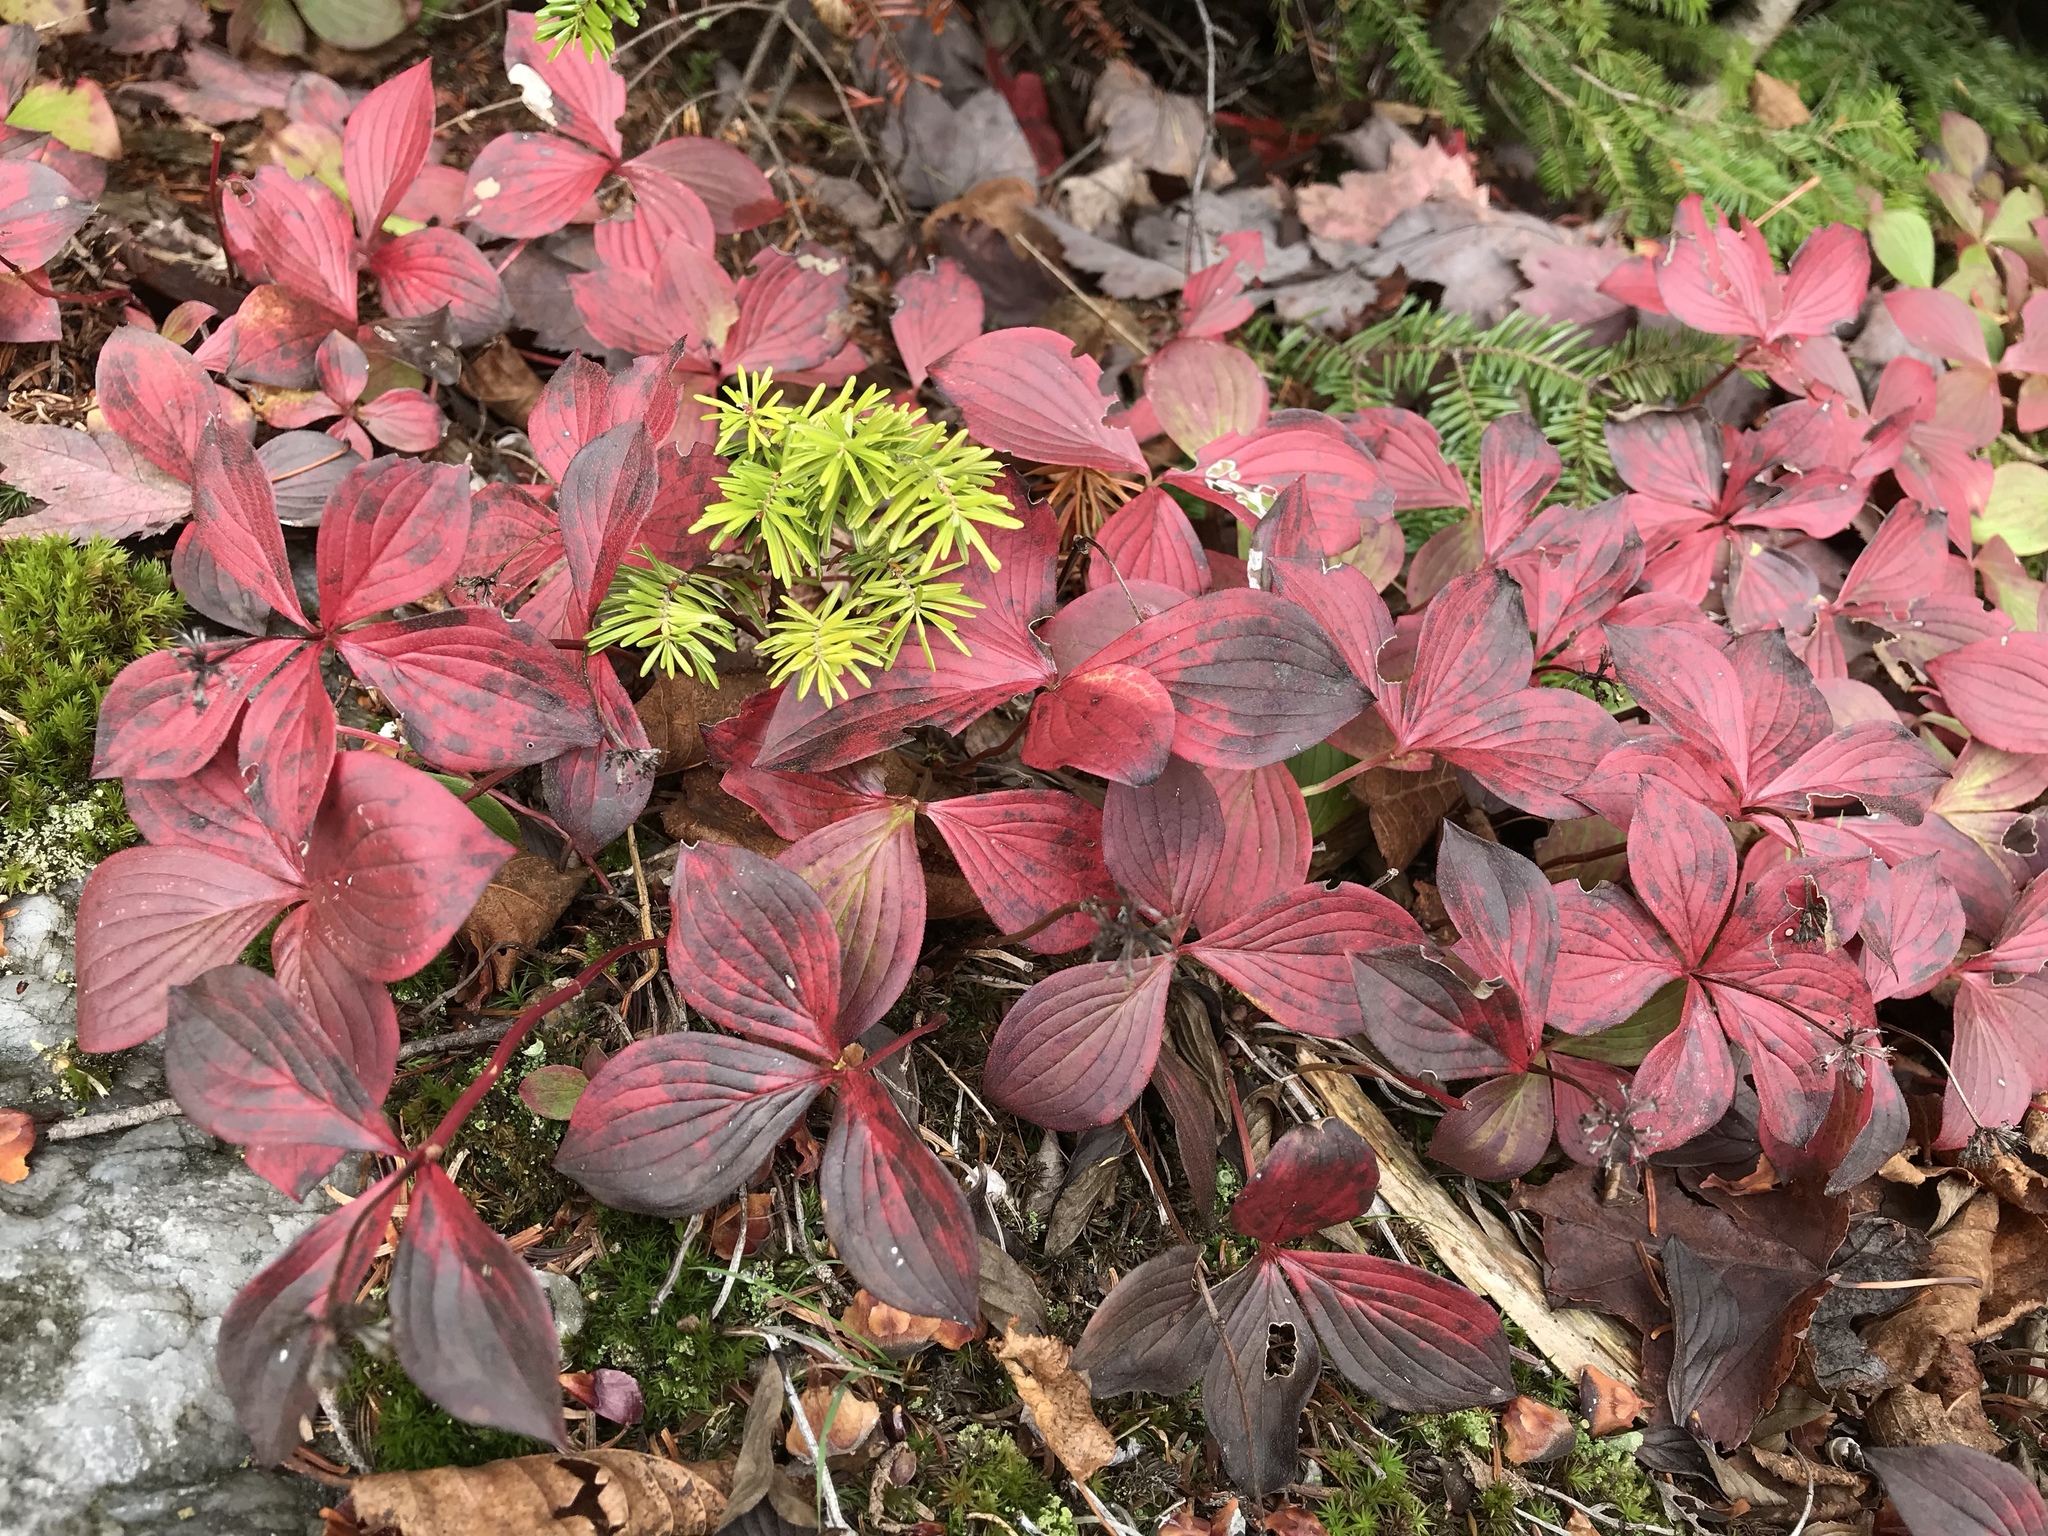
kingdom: Plantae
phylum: Tracheophyta
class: Magnoliopsida
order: Cornales
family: Cornaceae
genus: Cornus
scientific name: Cornus canadensis
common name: Creeping dogwood
